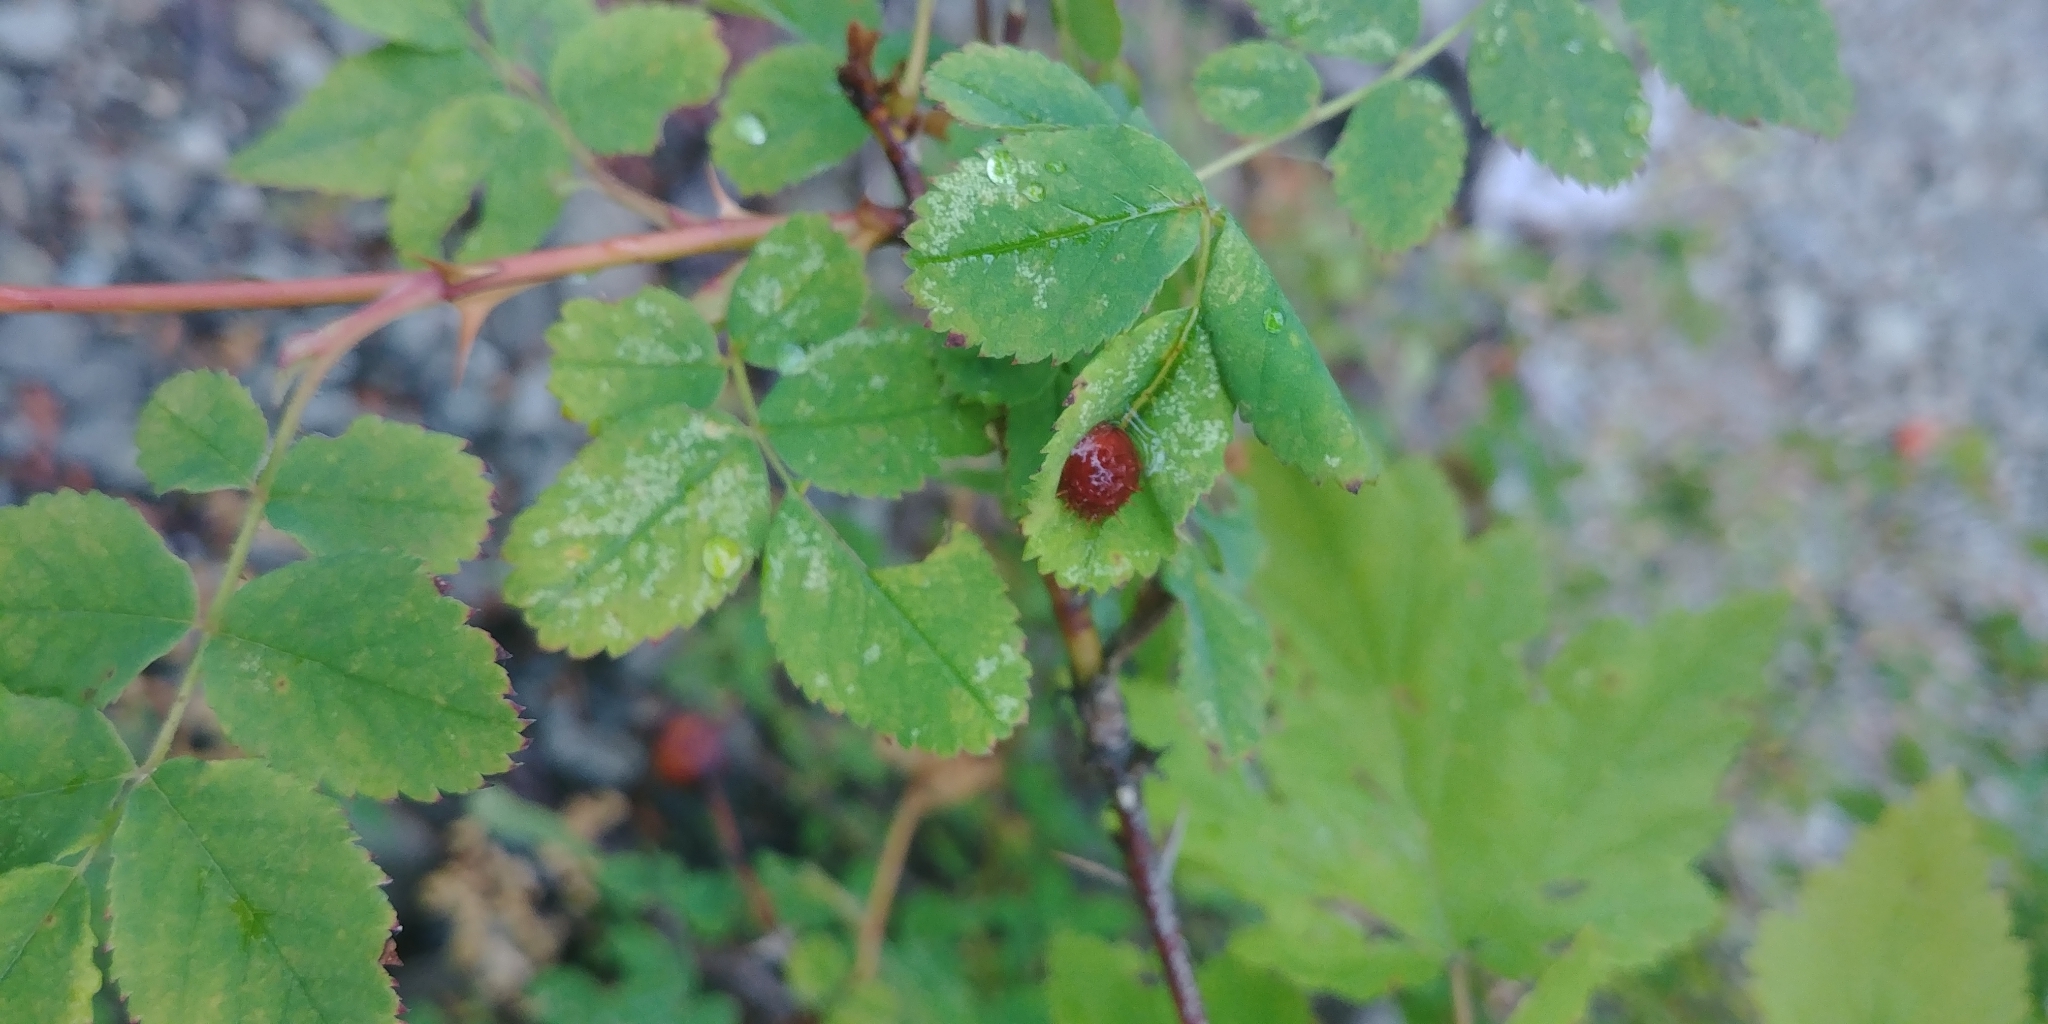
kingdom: Animalia
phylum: Arthropoda
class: Insecta
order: Hymenoptera
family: Cynipidae
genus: Diplolepis
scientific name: Diplolepis polita
